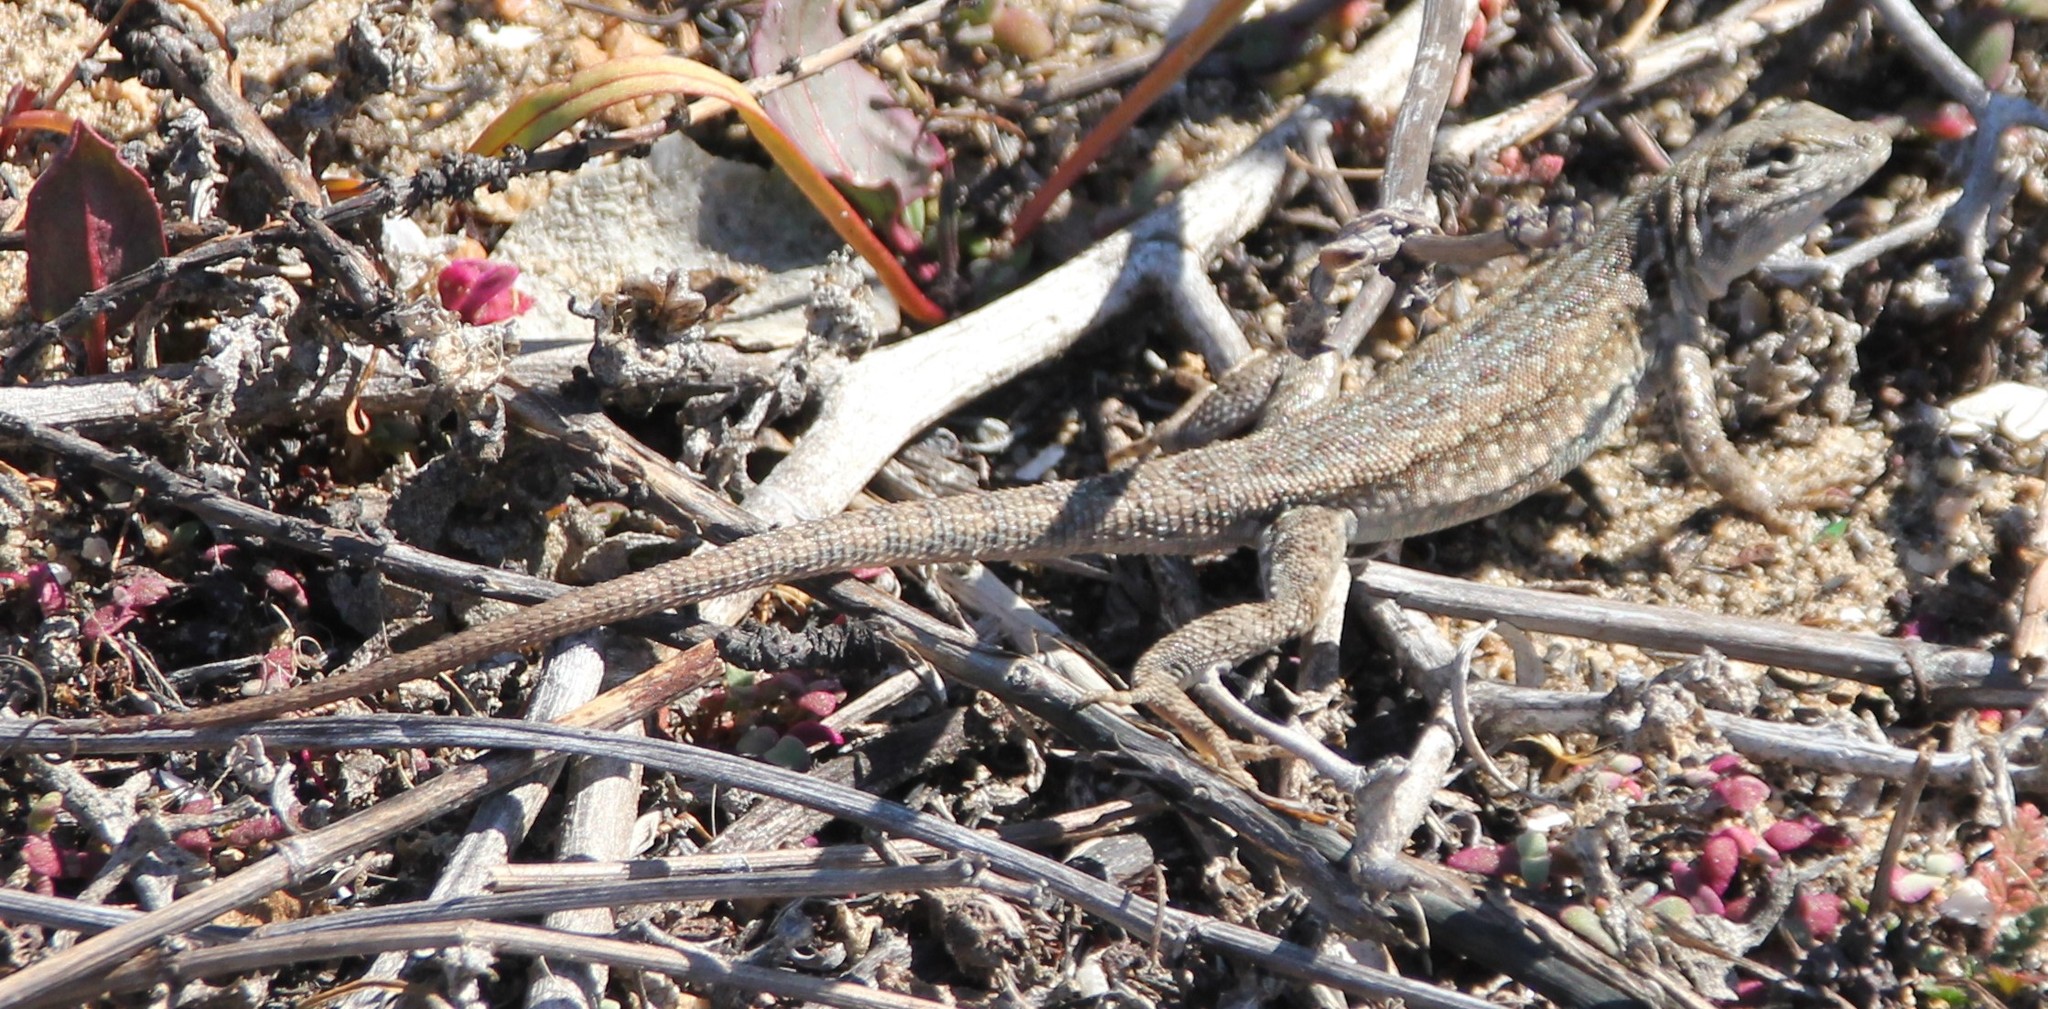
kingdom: Animalia
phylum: Chordata
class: Squamata
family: Phrynosomatidae
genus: Uta
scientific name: Uta stansburiana
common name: Side-blotched lizard
